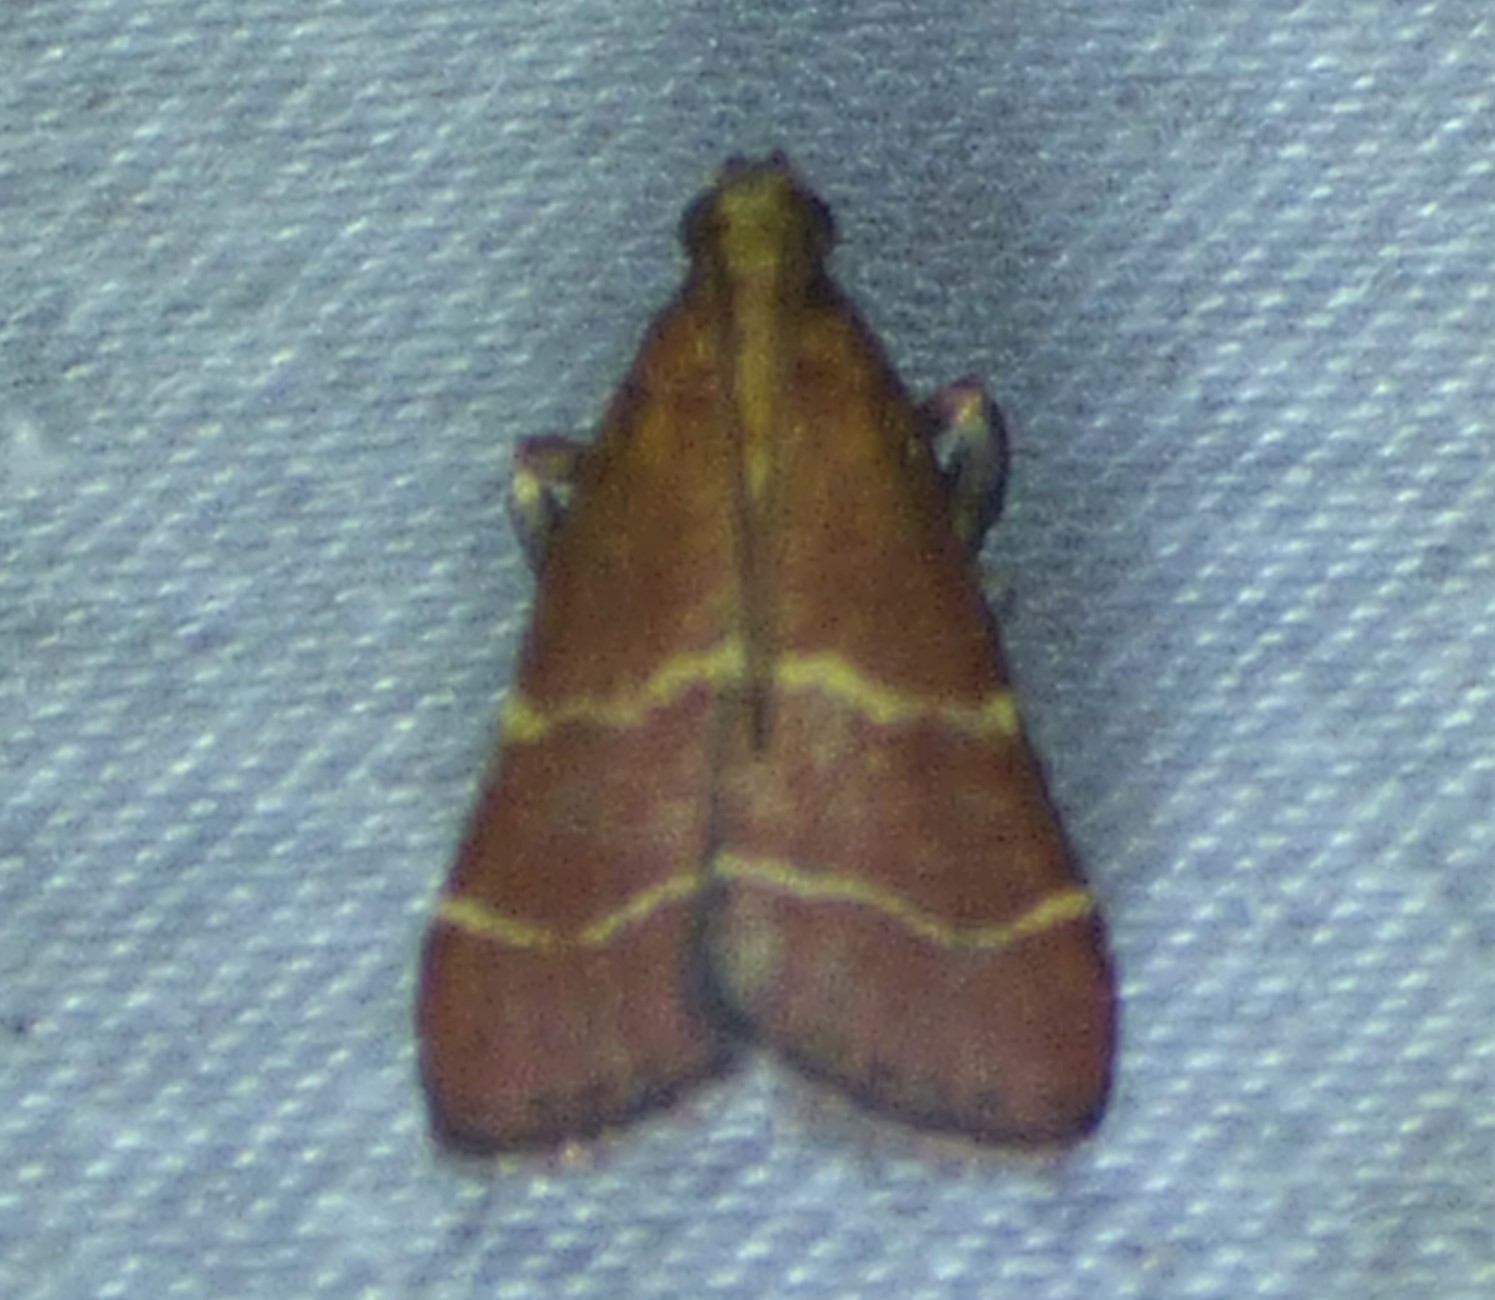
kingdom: Animalia
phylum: Arthropoda
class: Insecta
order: Lepidoptera
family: Pyralidae
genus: Arta
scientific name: Arta statalis
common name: Posturing arta moth
